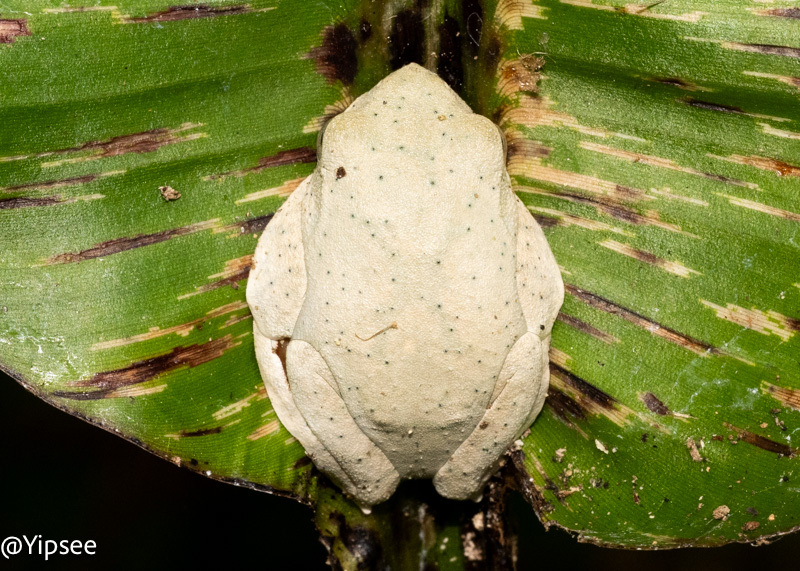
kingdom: Animalia
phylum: Chordata
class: Amphibia
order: Anura
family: Rhacophoridae
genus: Rhacophorus
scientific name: Rhacophorus rhodopus
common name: Namdapha bush frog
